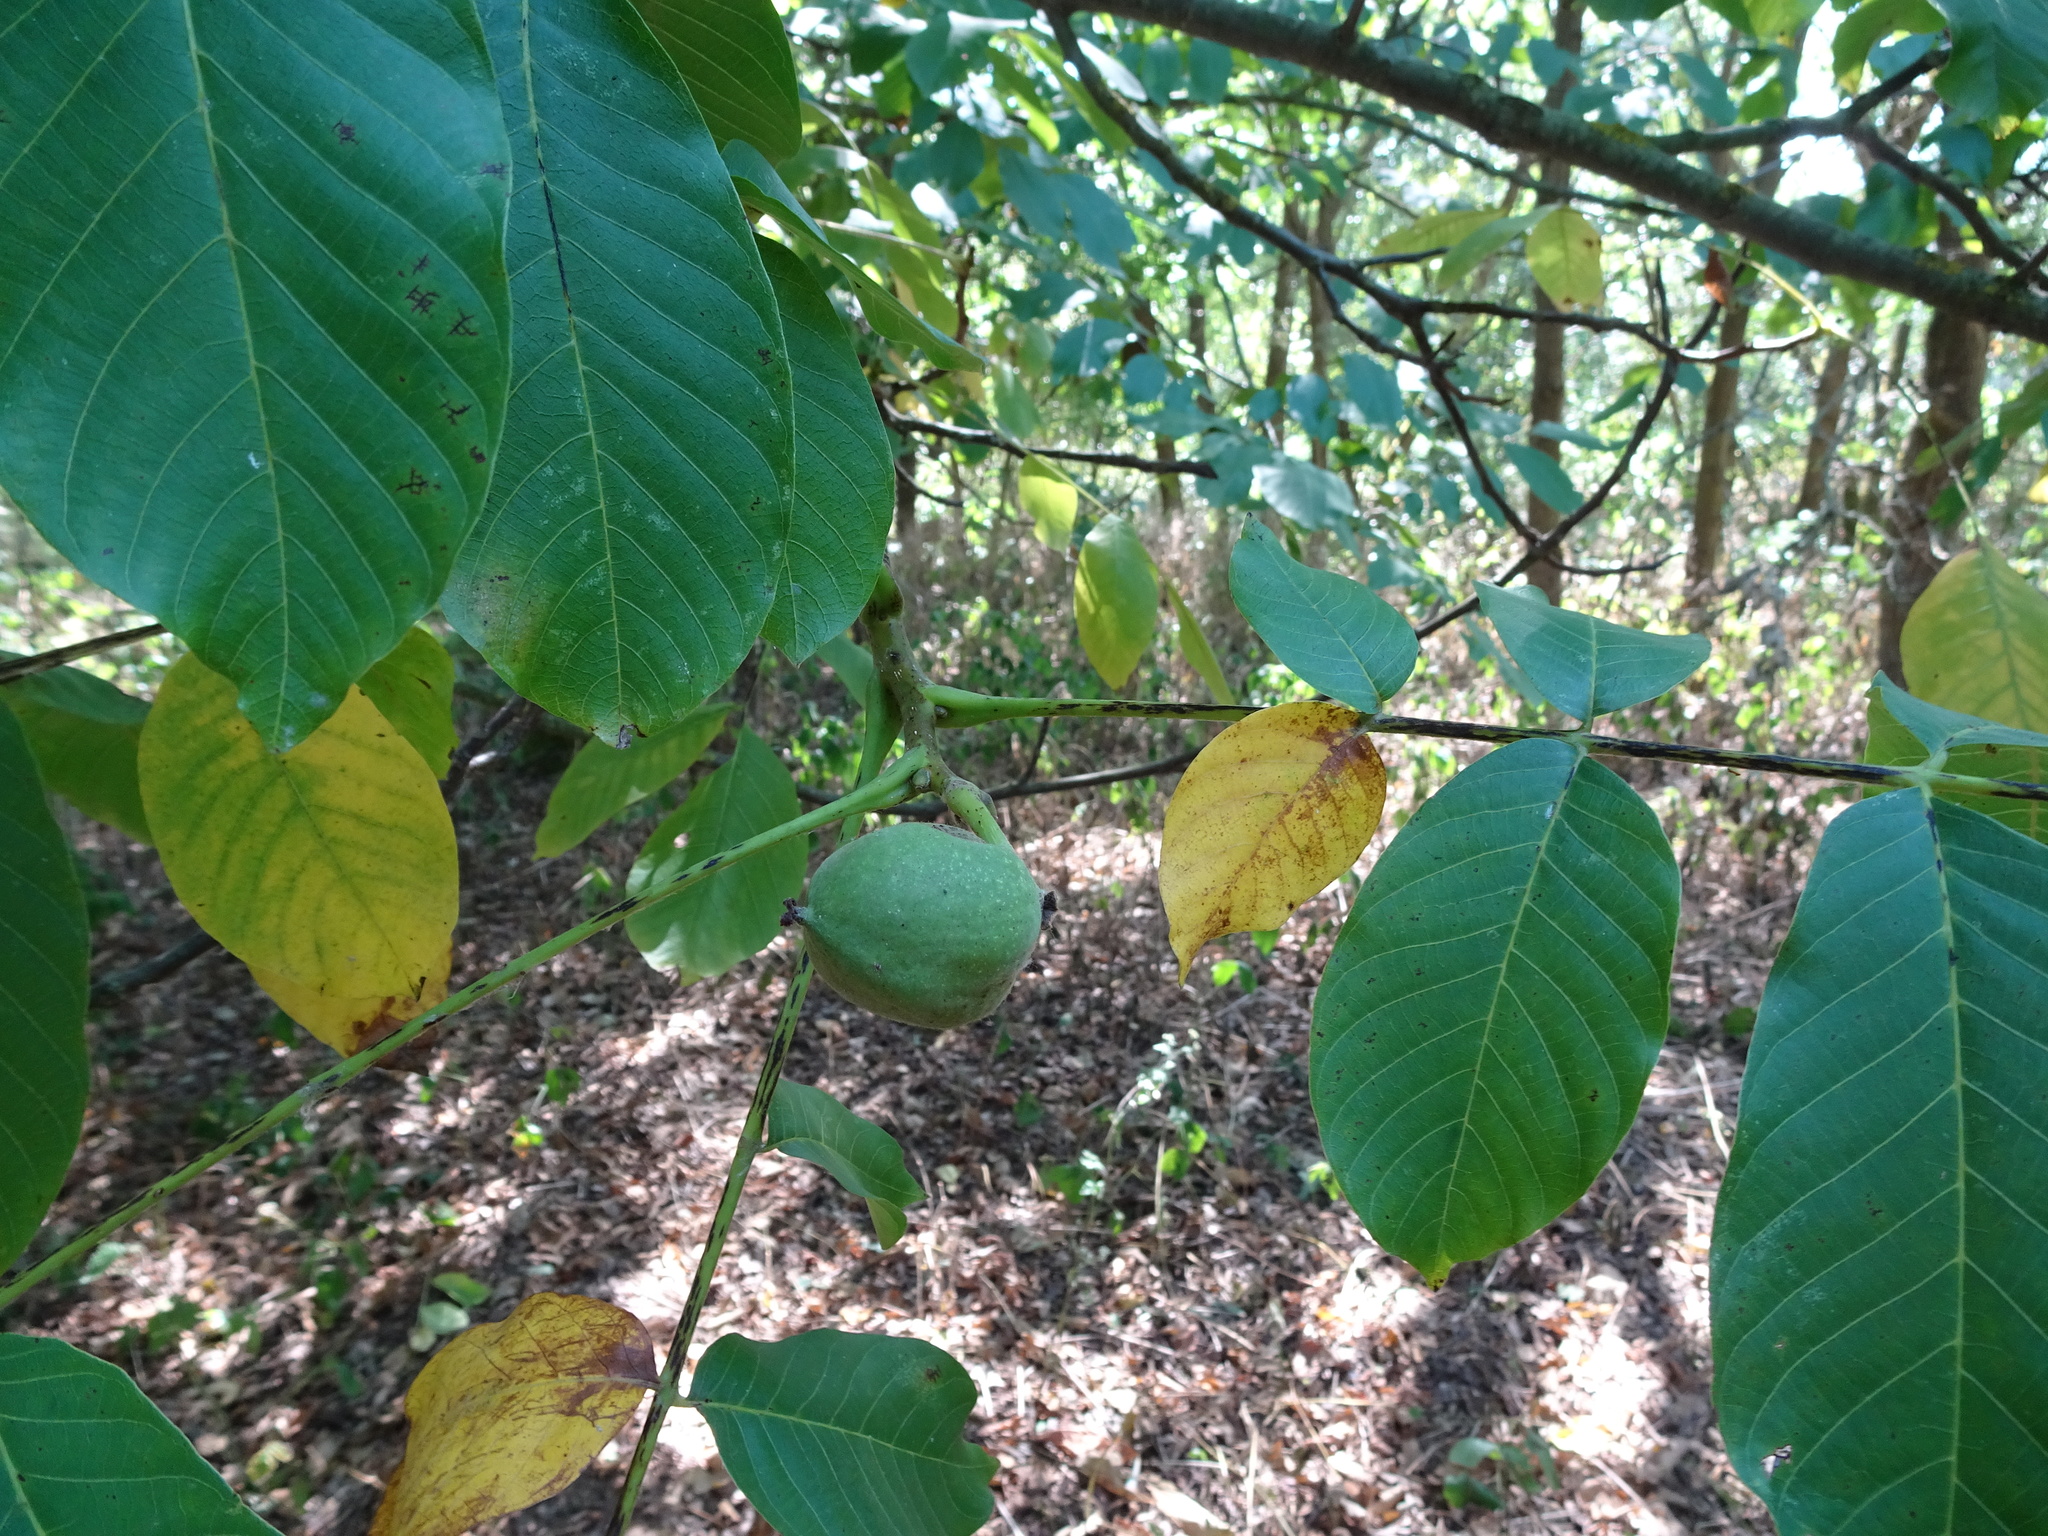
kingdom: Plantae
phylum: Tracheophyta
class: Magnoliopsida
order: Fagales
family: Juglandaceae
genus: Juglans
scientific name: Juglans regia
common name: Walnut
